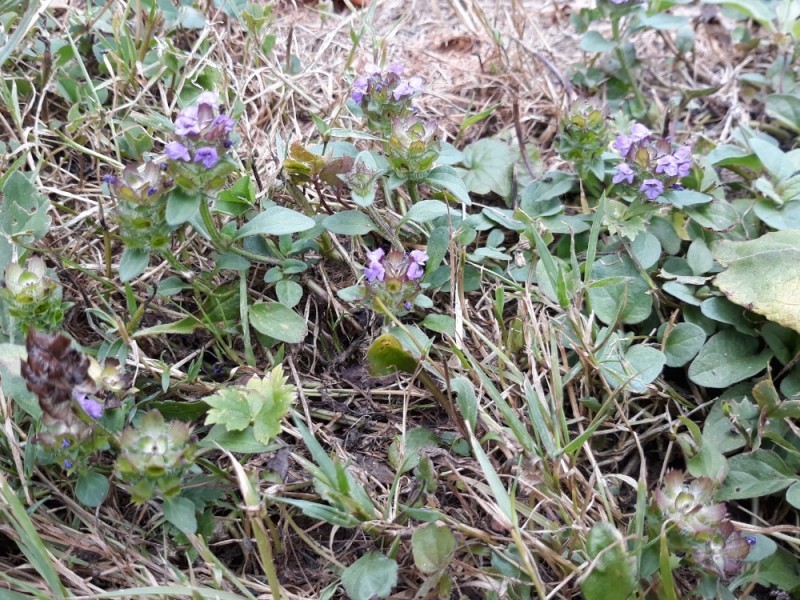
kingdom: Plantae
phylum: Tracheophyta
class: Magnoliopsida
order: Lamiales
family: Lamiaceae
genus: Prunella
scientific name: Prunella vulgaris
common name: Heal-all
